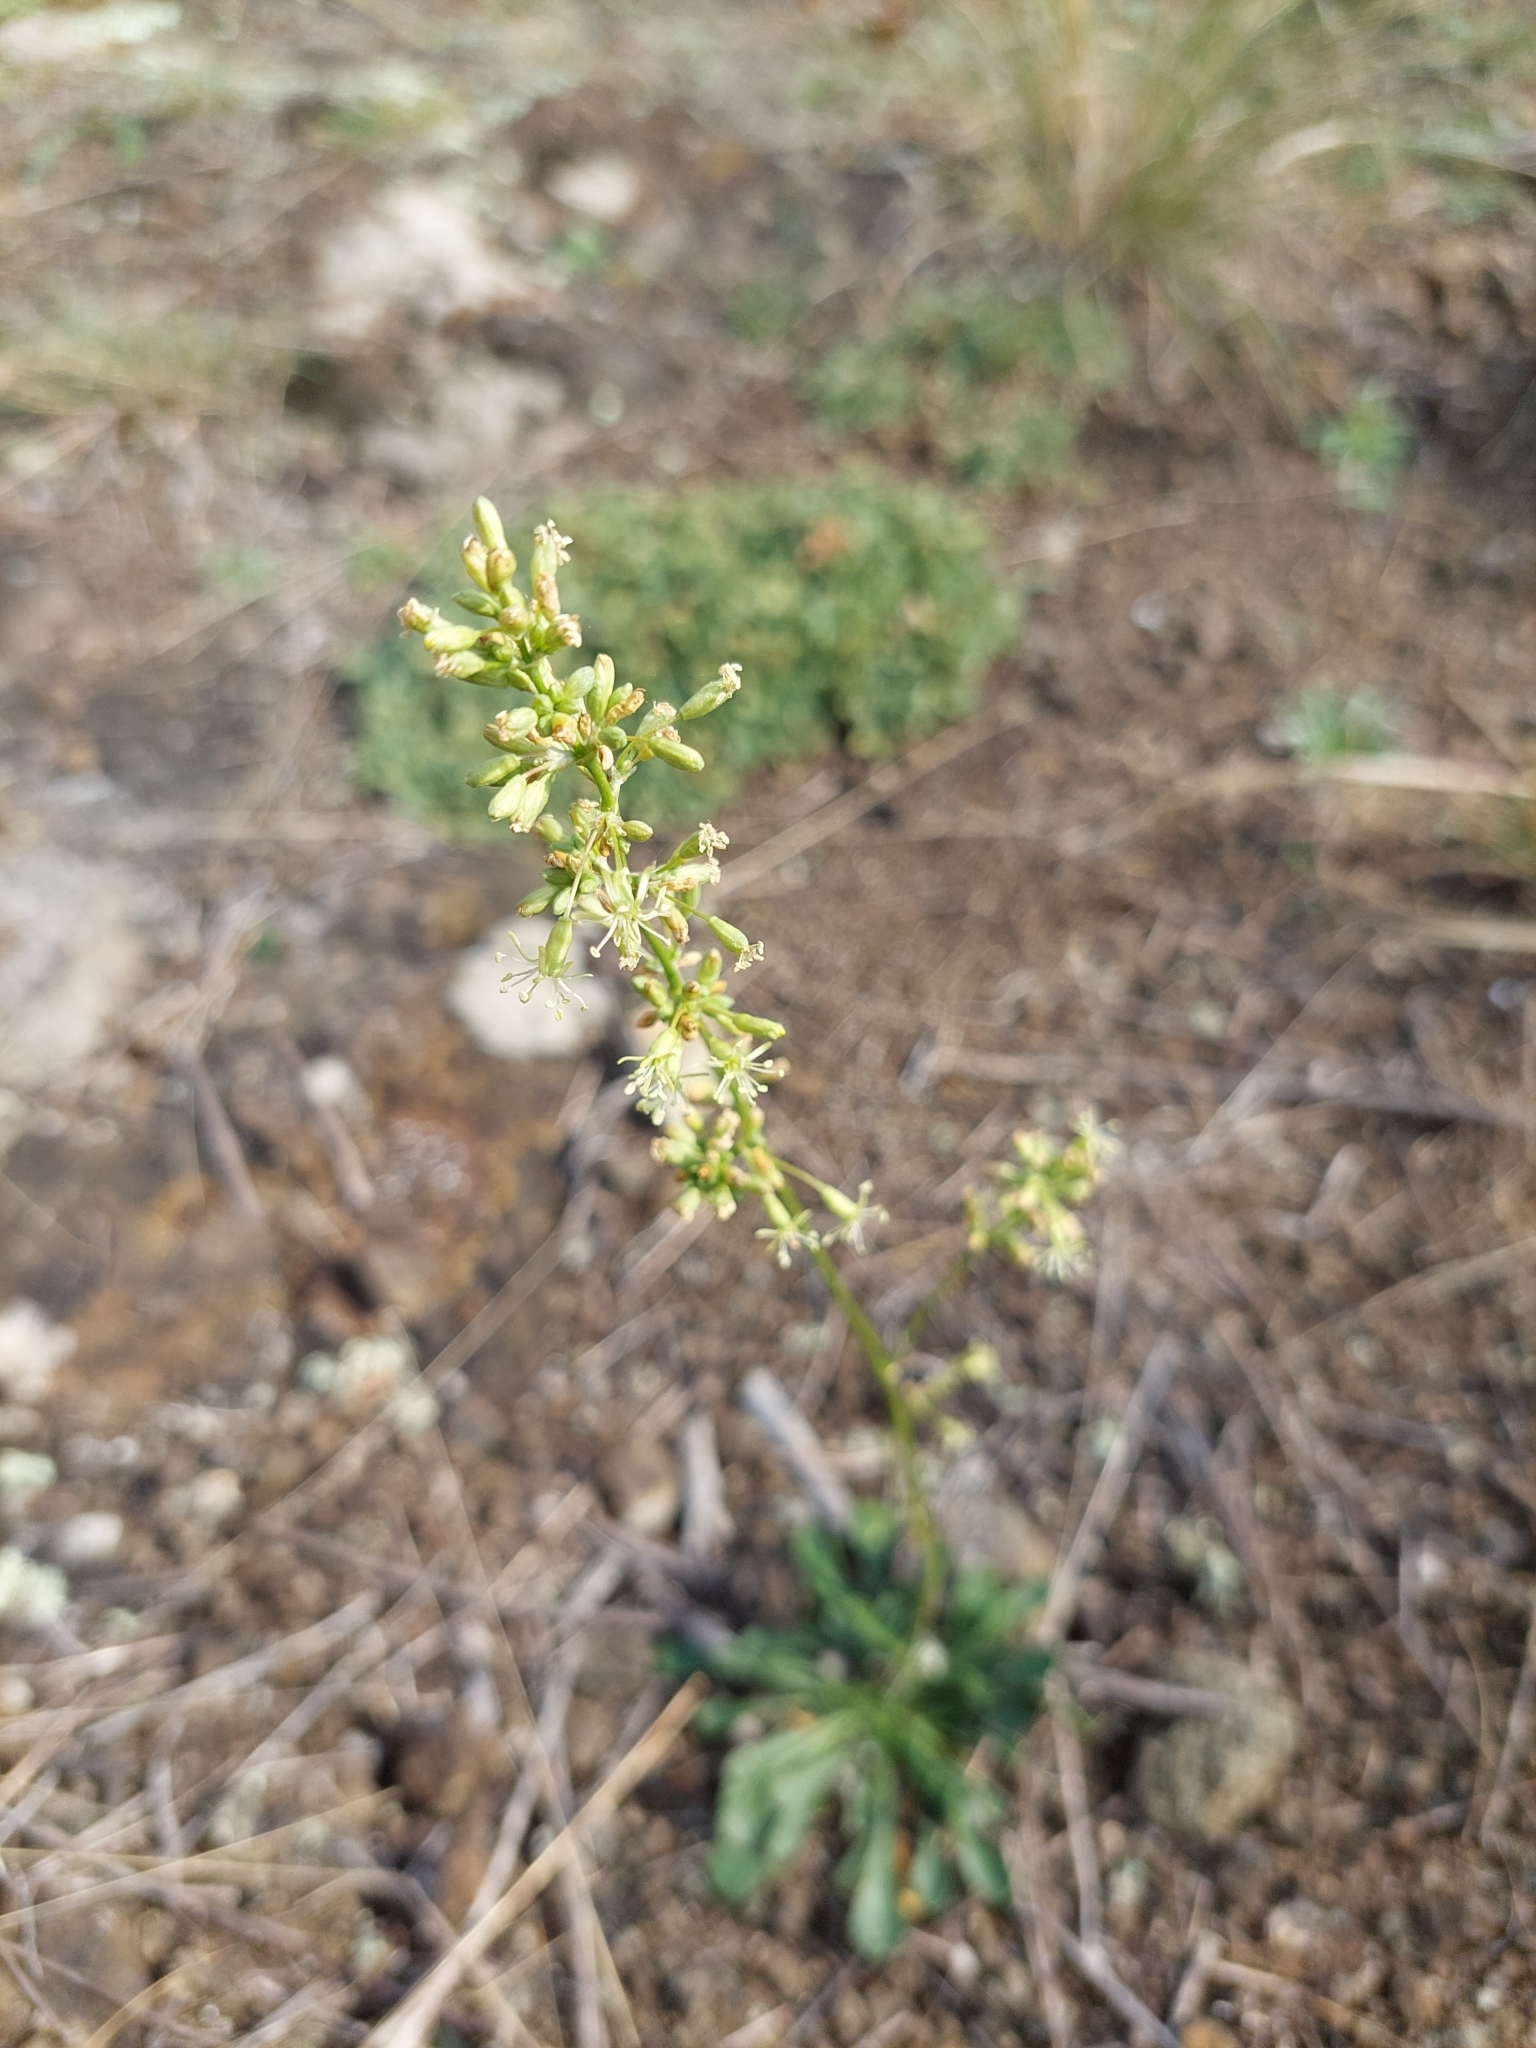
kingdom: Plantae
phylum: Tracheophyta
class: Magnoliopsida
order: Caryophyllales
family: Caryophyllaceae
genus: Silene
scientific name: Silene otites
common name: Spanish catchfly
